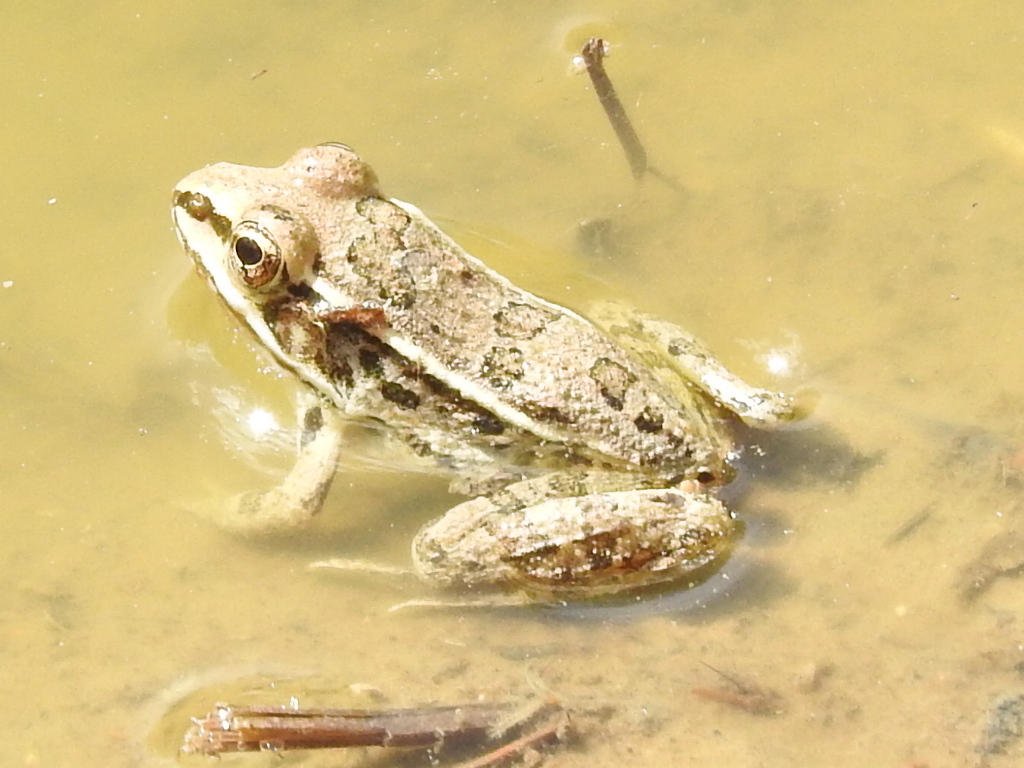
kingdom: Animalia
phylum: Chordata
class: Amphibia
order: Anura
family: Ranidae
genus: Lithobates
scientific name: Lithobates berlandieri
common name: Rio grande leopard frog
